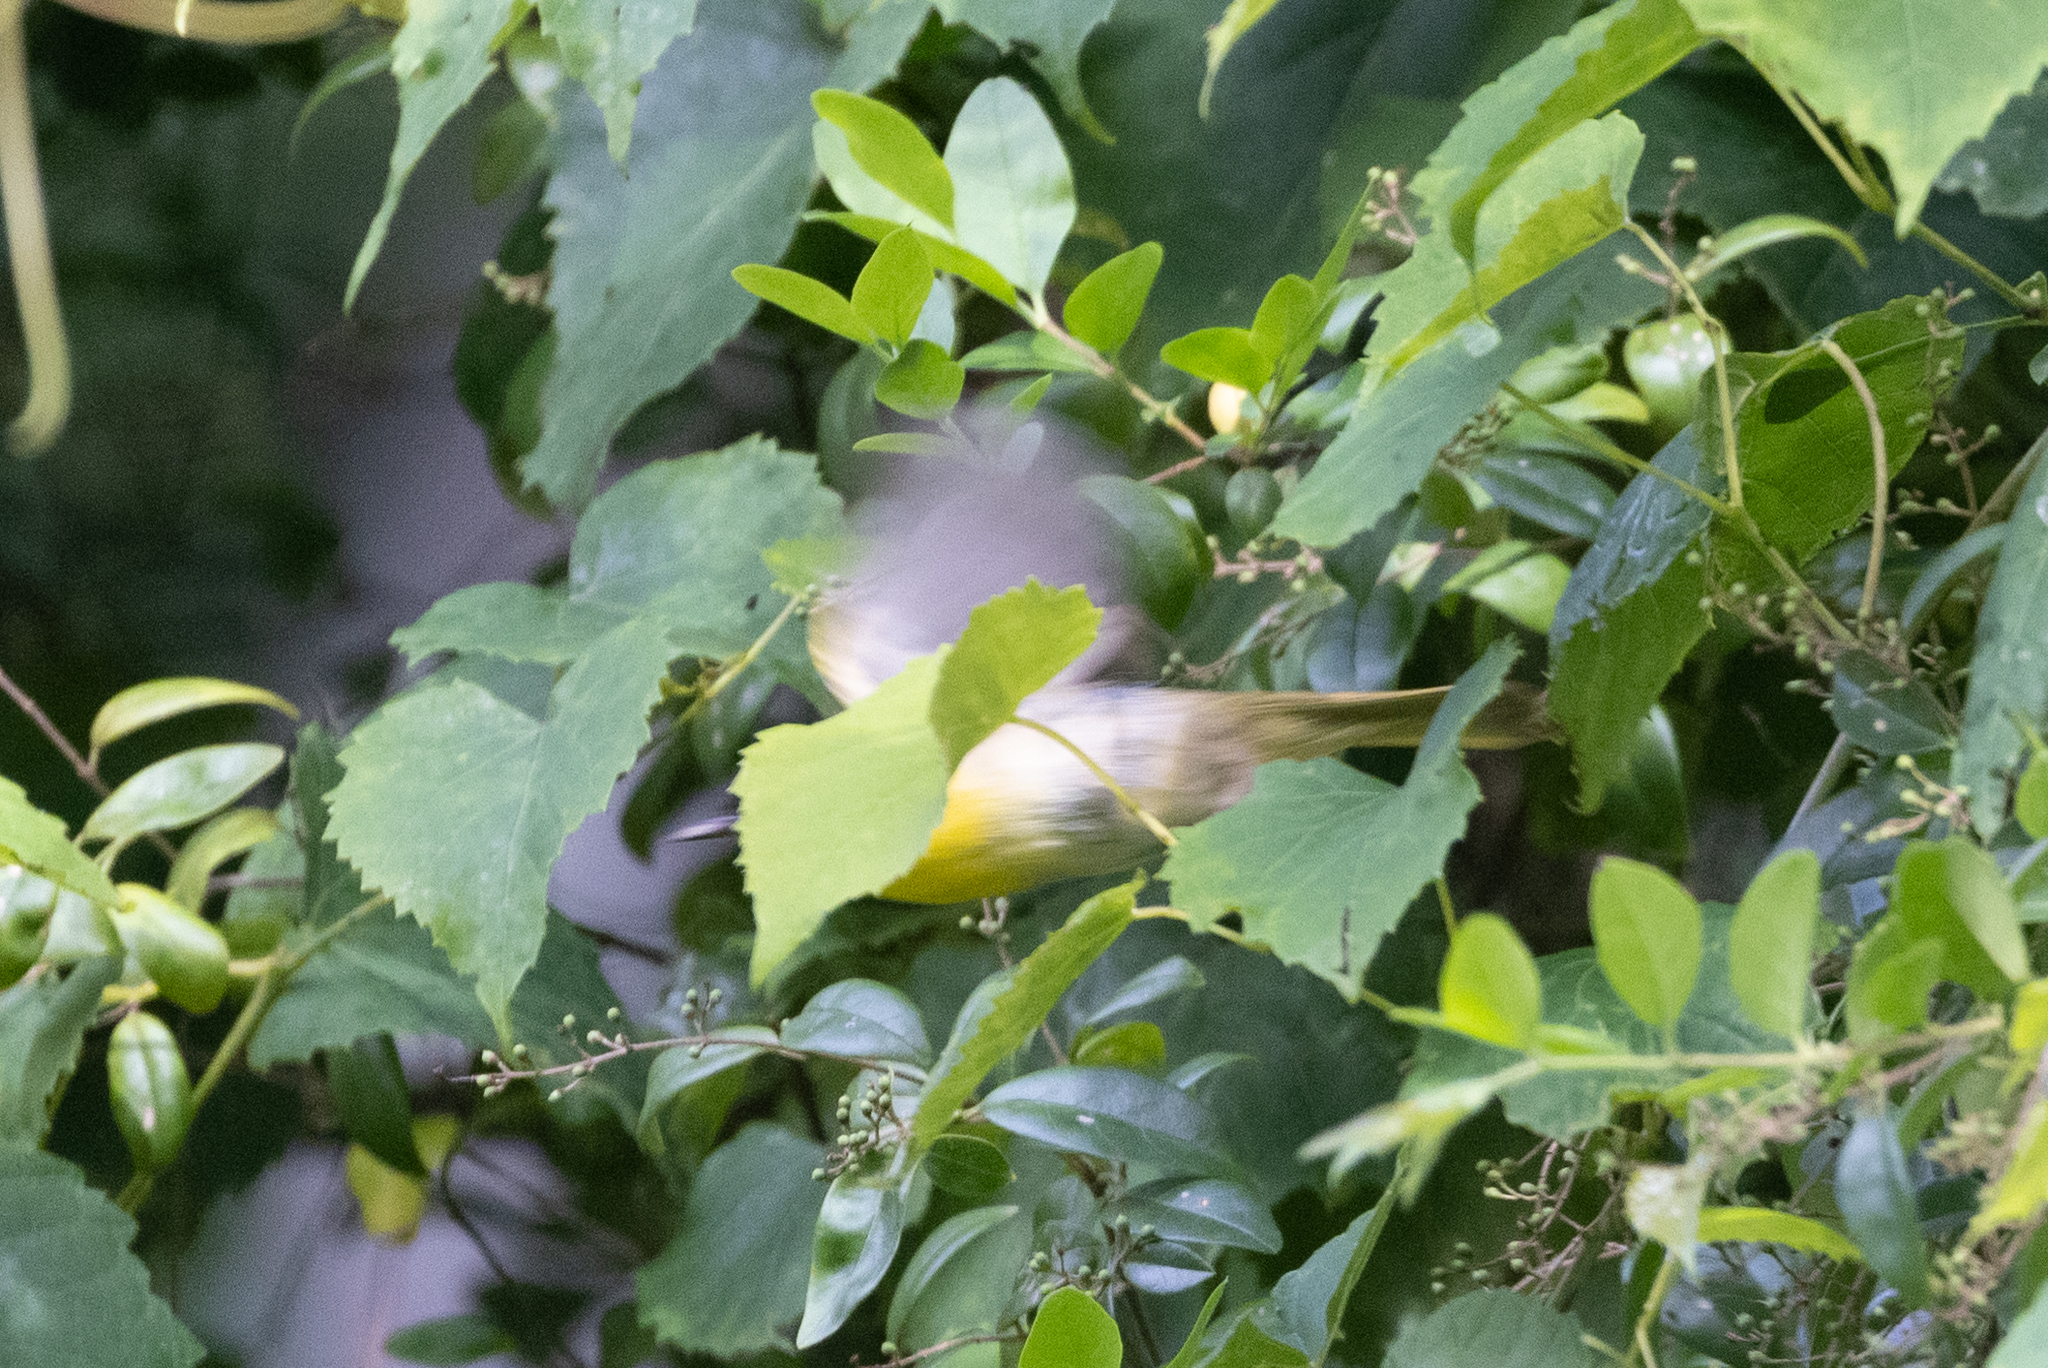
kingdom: Animalia
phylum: Chordata
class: Aves
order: Passeriformes
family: Parulidae
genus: Geothlypis
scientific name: Geothlypis trichas
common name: Common yellowthroat
